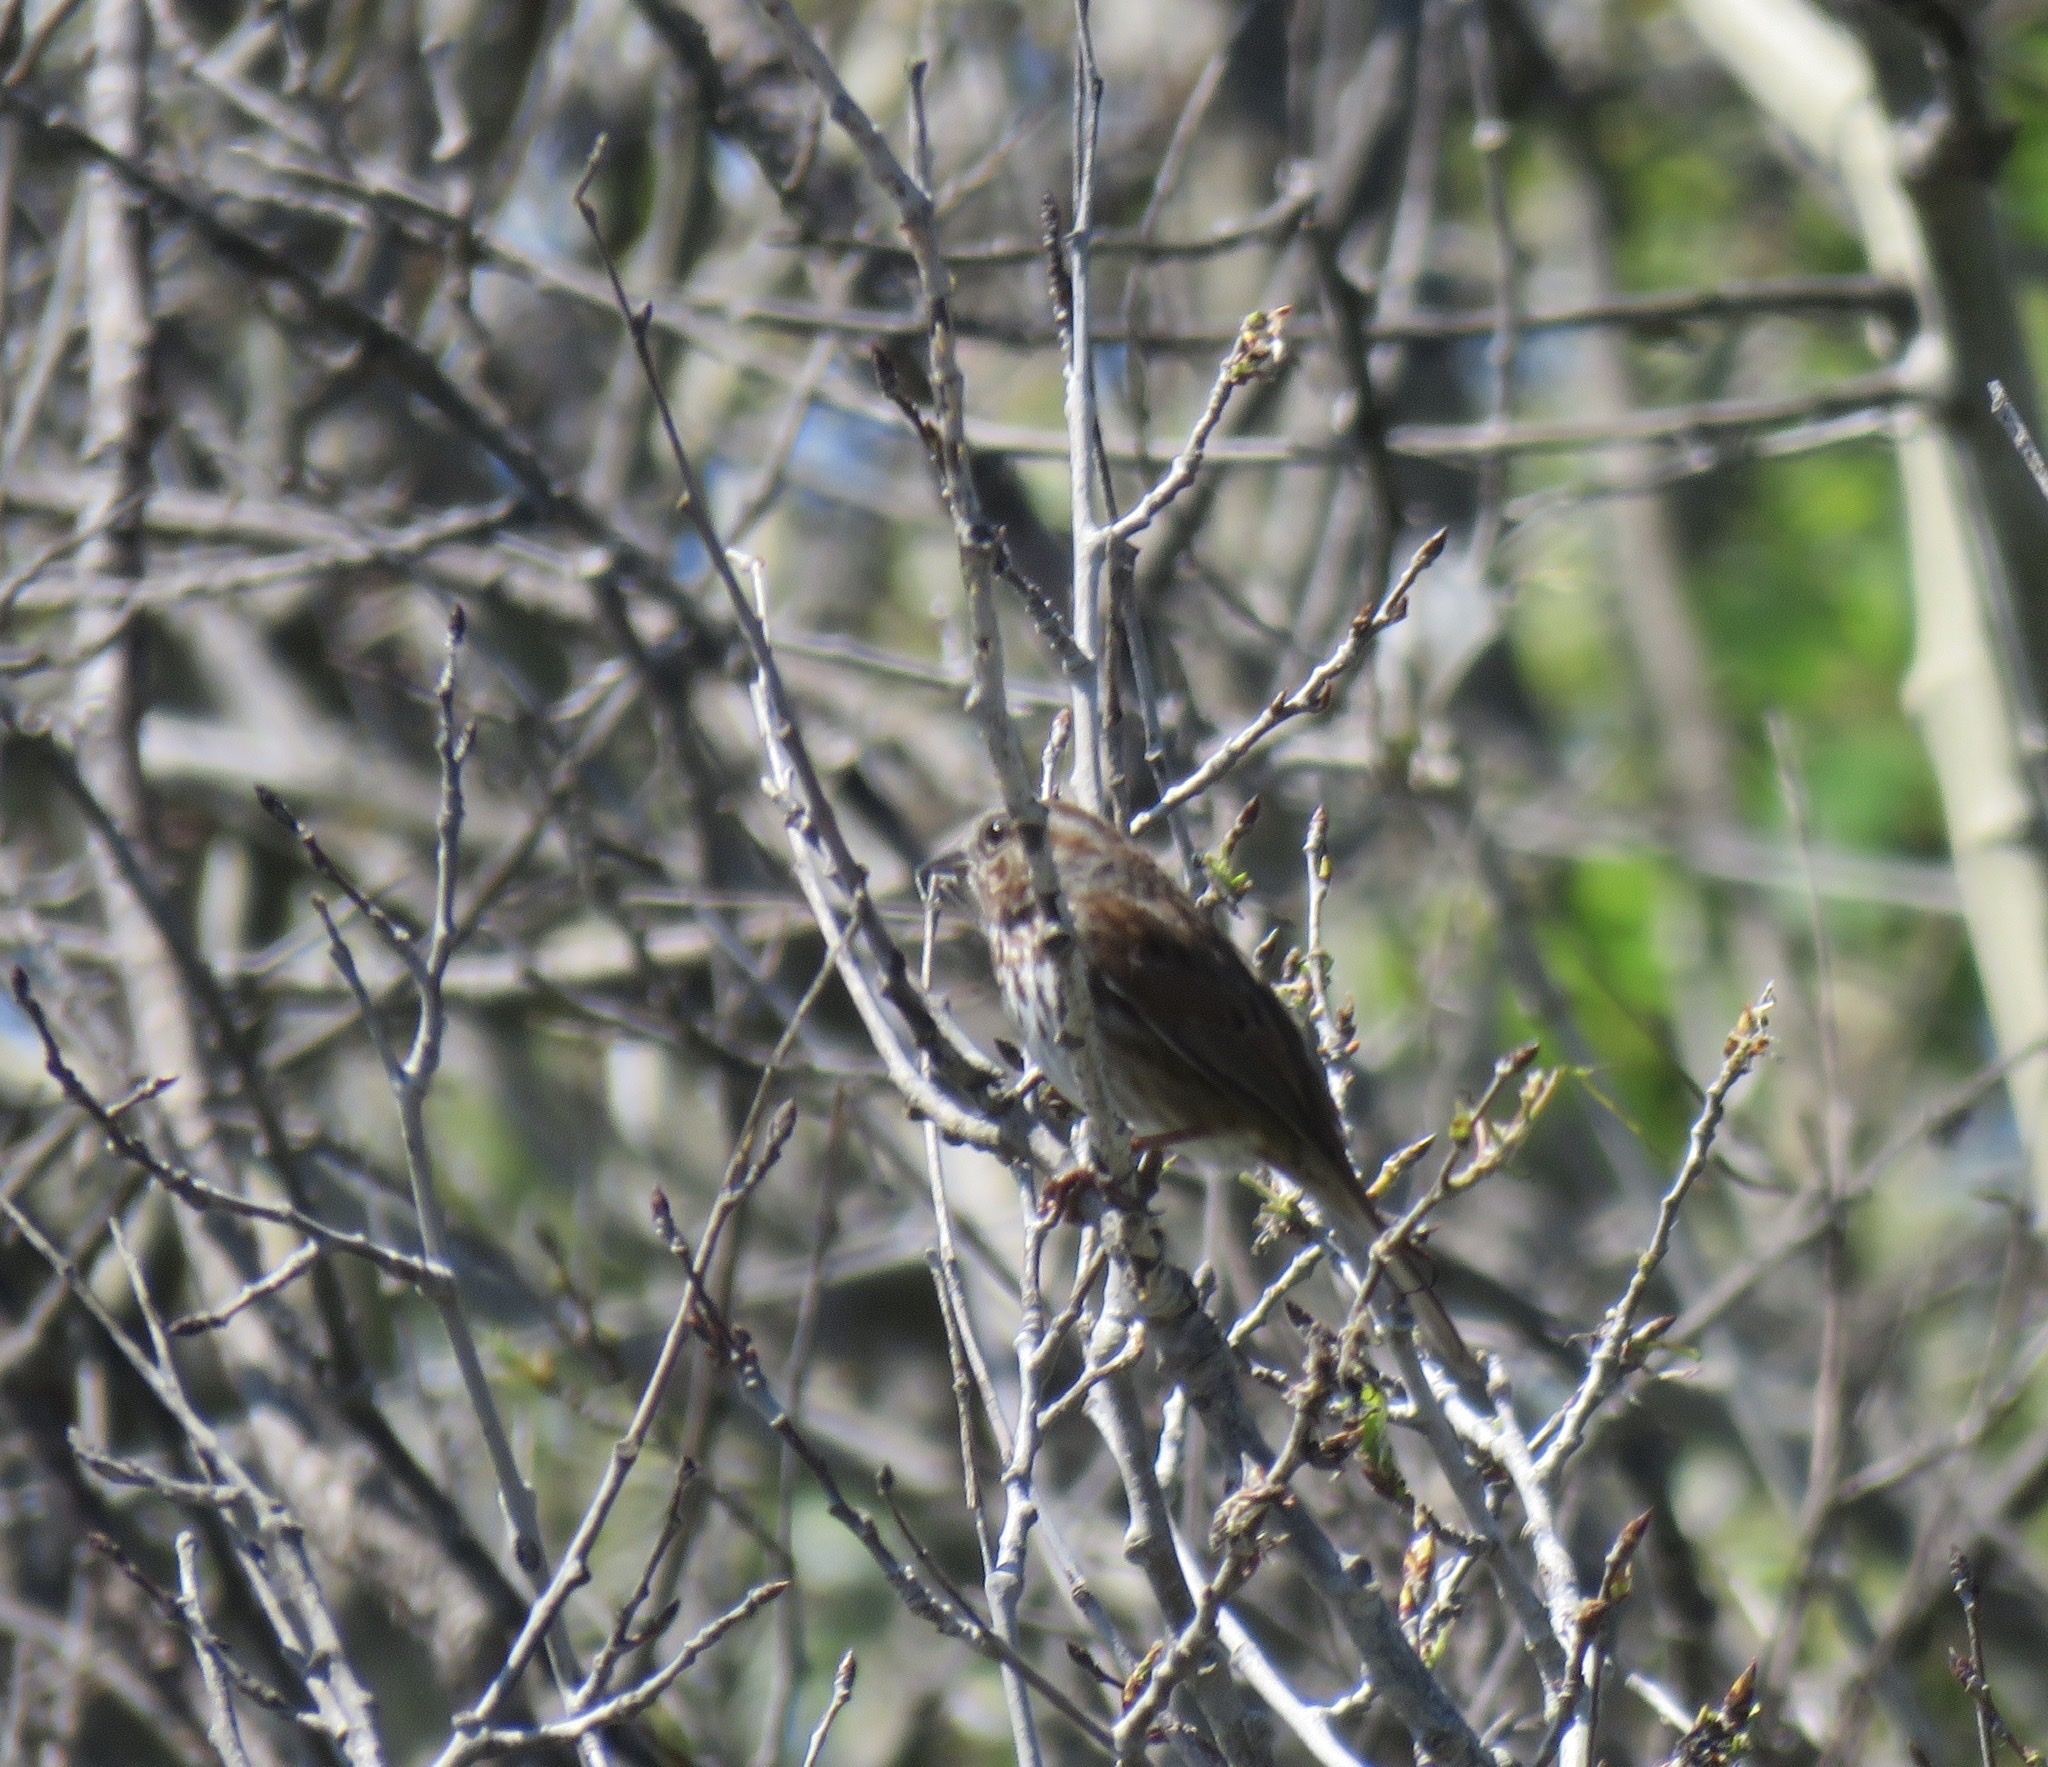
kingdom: Animalia
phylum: Chordata
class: Aves
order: Passeriformes
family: Passerellidae
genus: Melospiza
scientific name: Melospiza melodia
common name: Song sparrow
